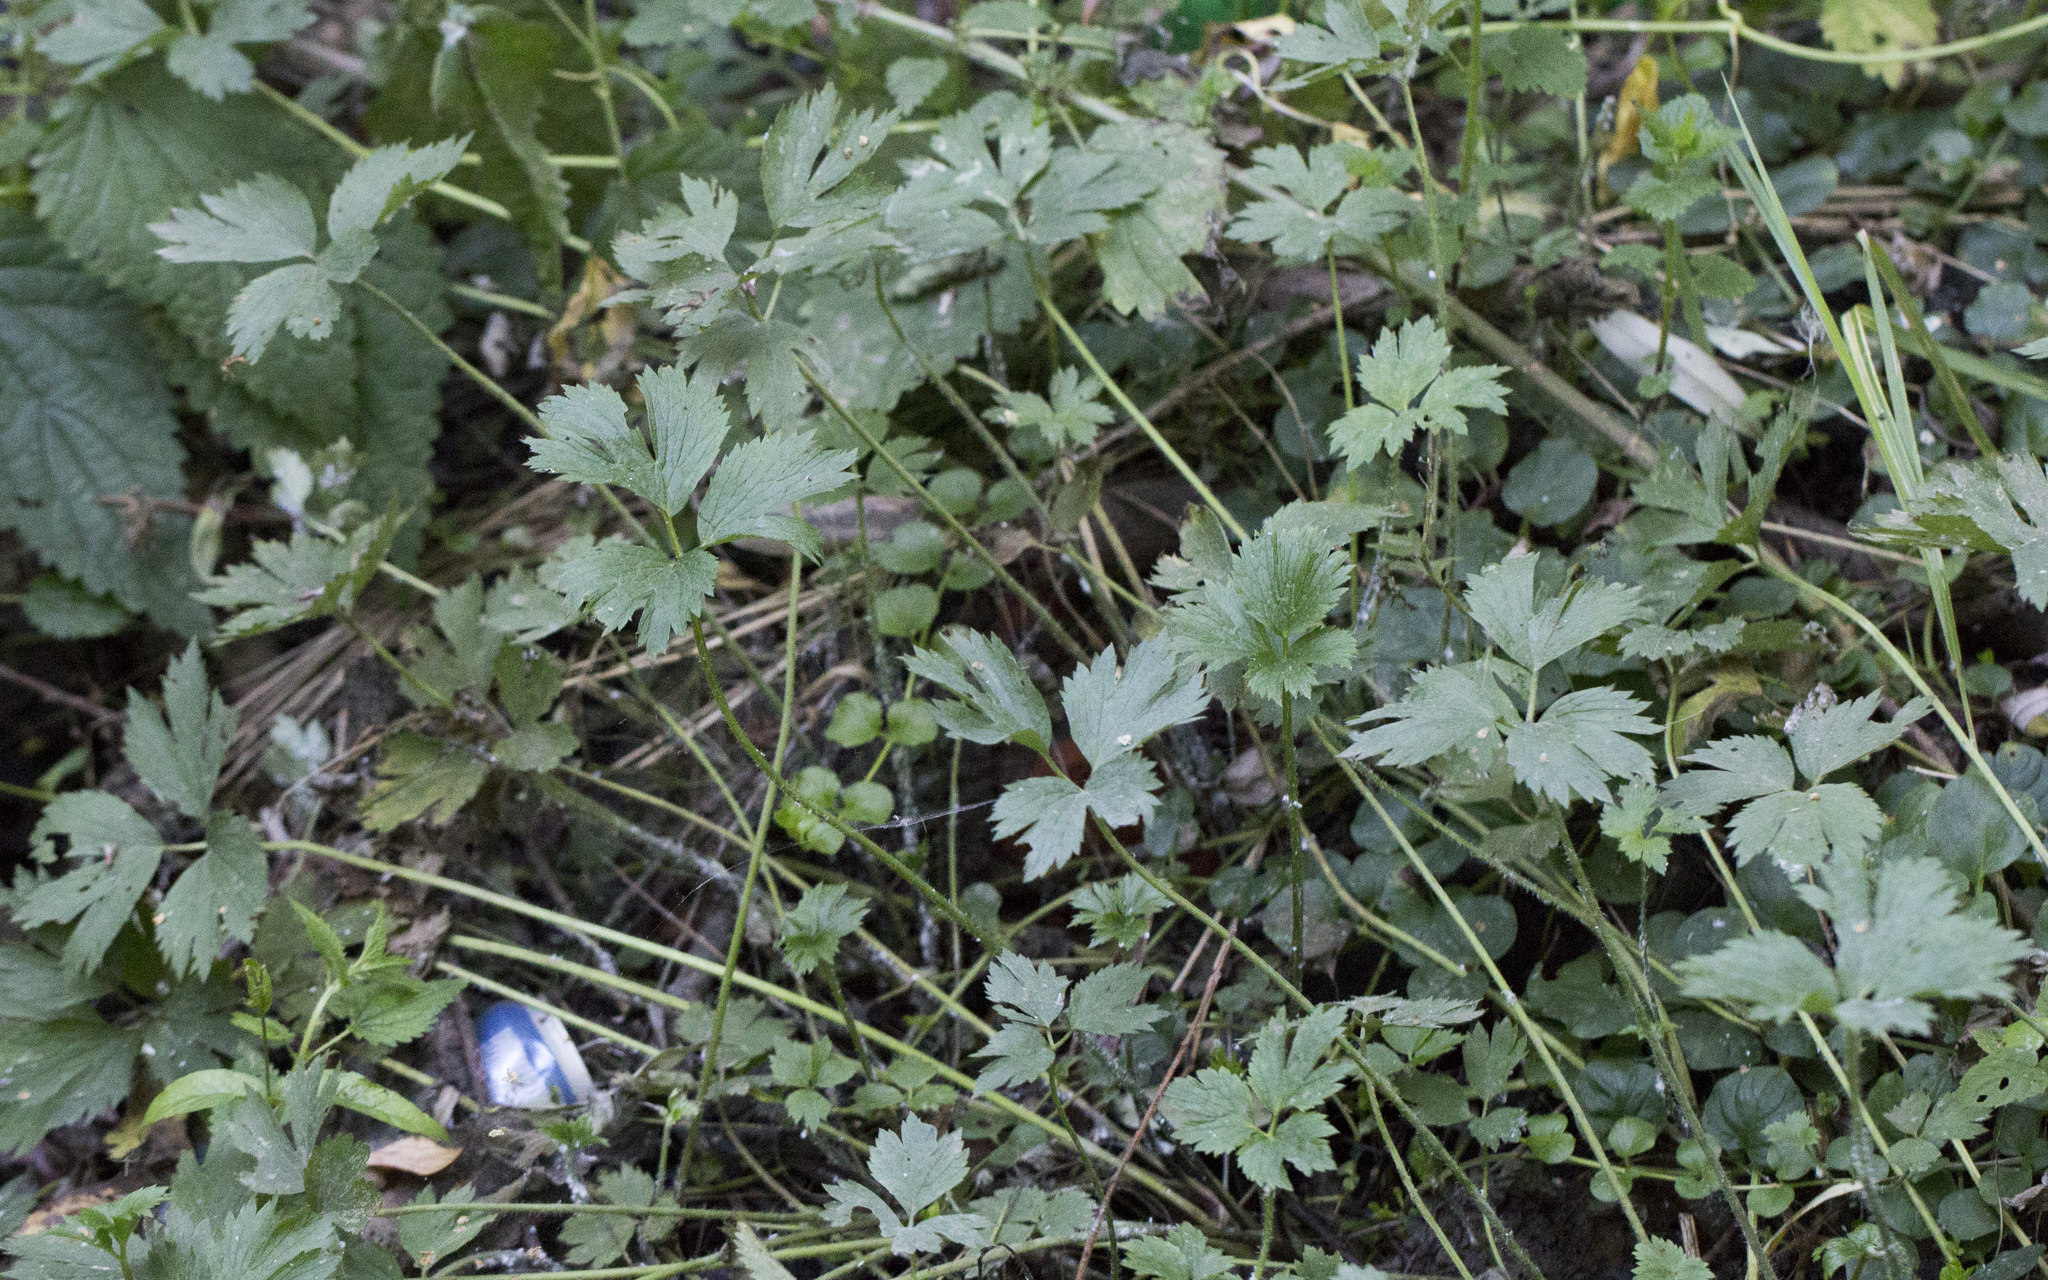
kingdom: Plantae
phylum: Tracheophyta
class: Magnoliopsida
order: Ranunculales
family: Ranunculaceae
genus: Ranunculus
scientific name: Ranunculus repens
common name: Creeping buttercup
